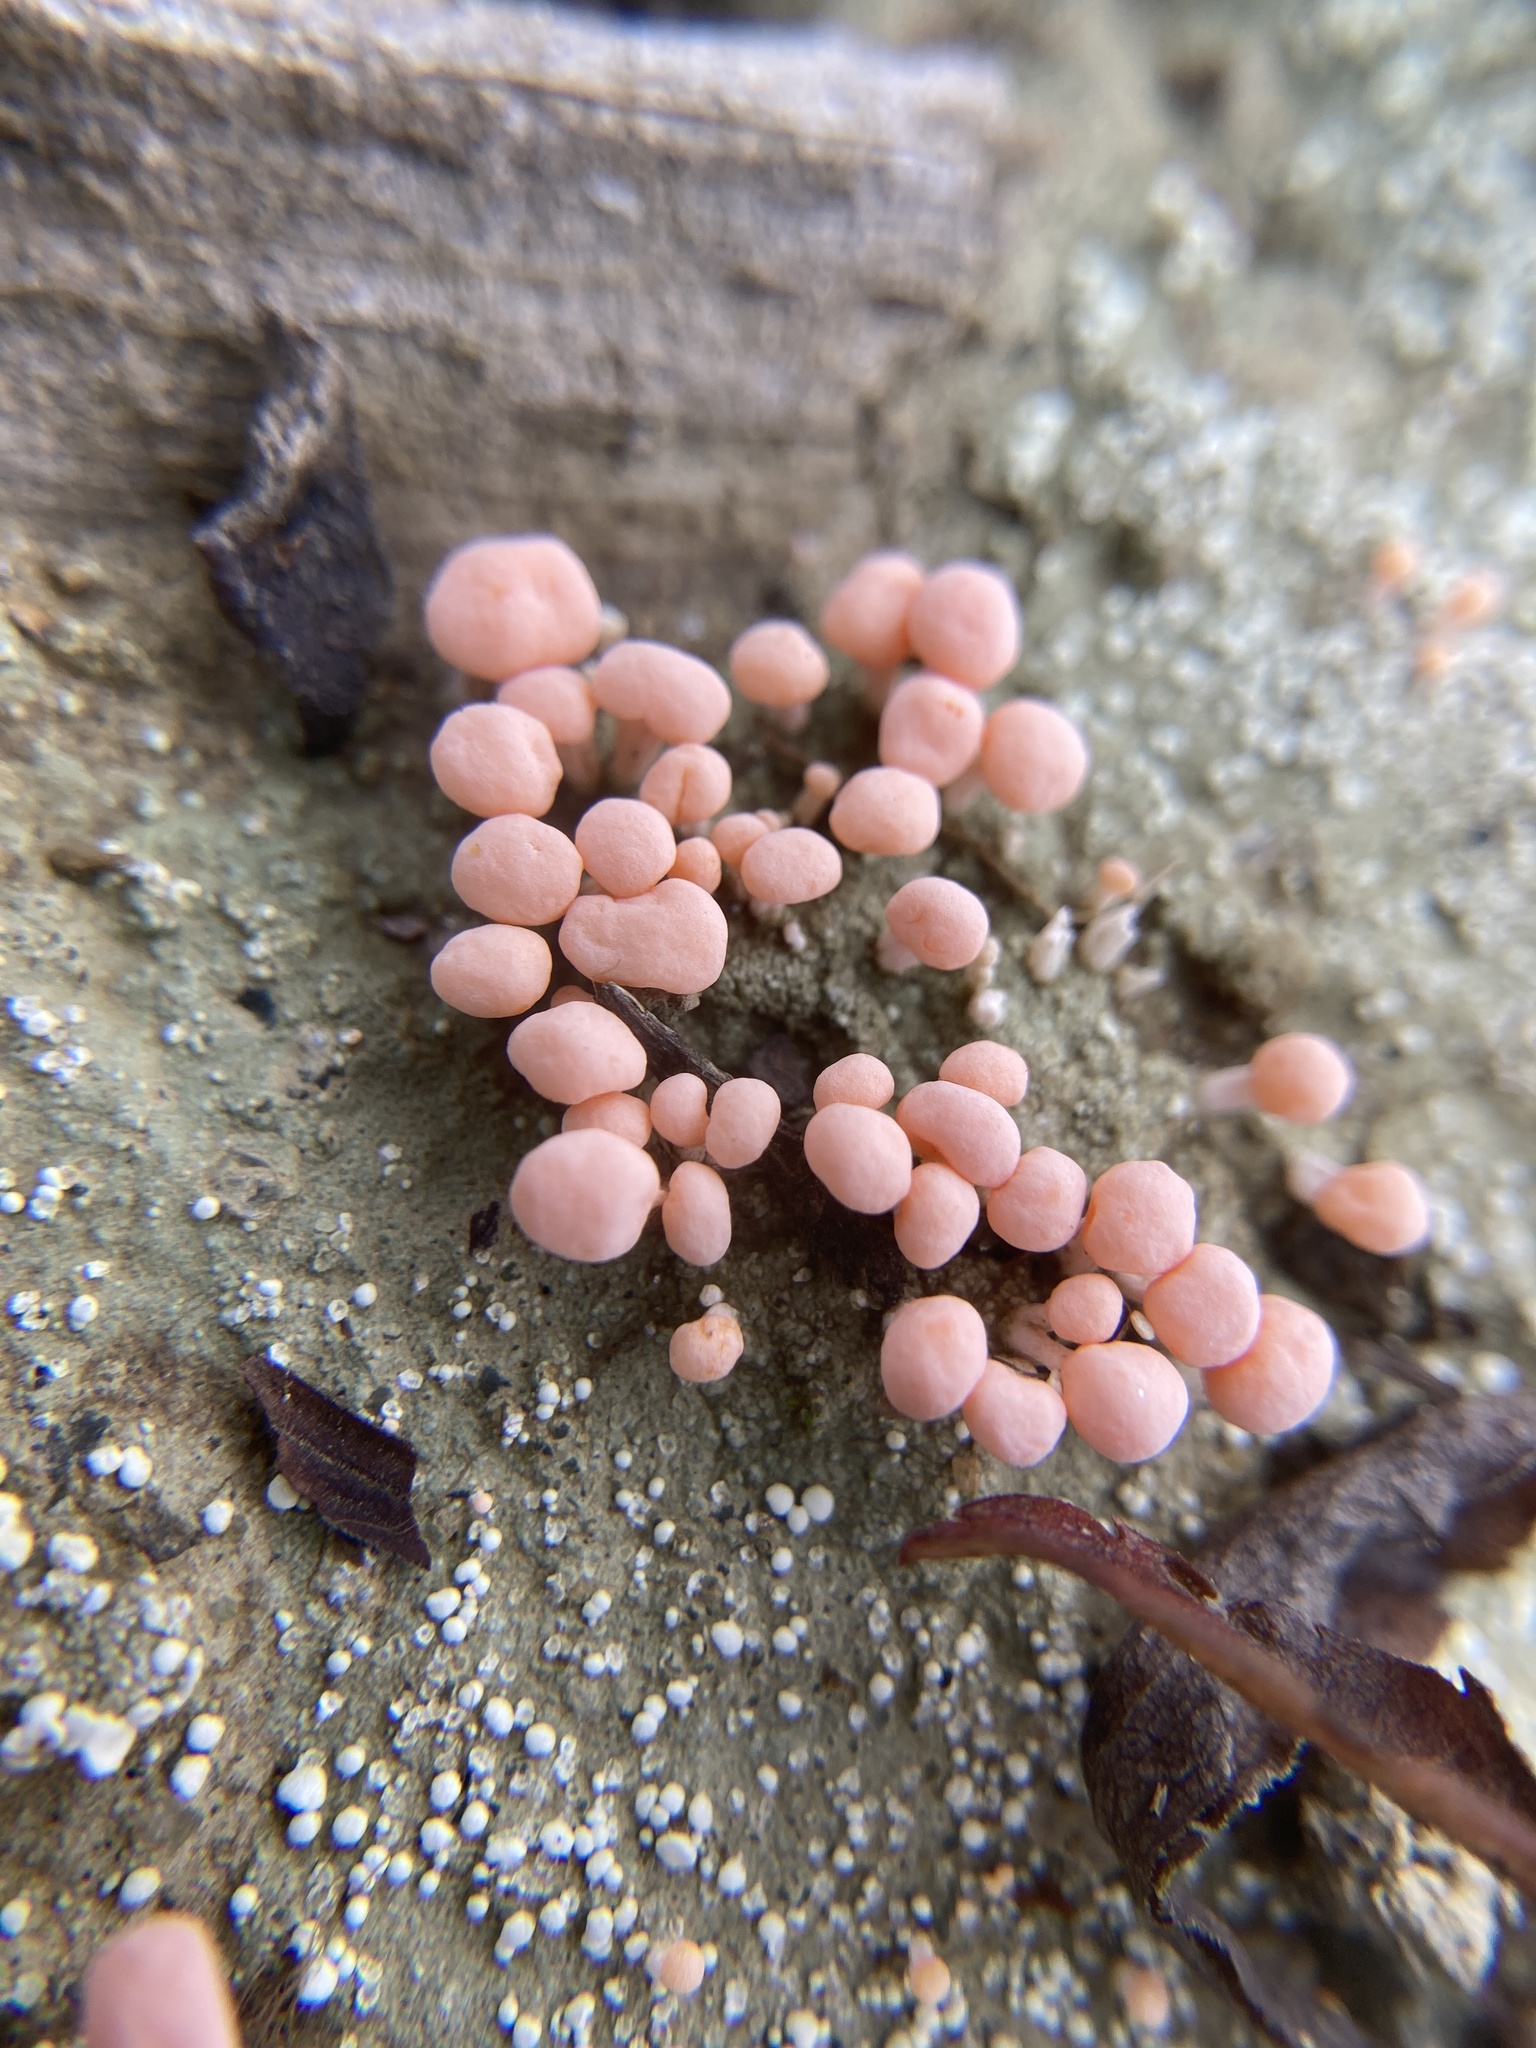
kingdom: Fungi
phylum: Ascomycota
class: Lecanoromycetes
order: Pertusariales
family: Icmadophilaceae
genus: Dibaeis
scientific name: Dibaeis baeomyces
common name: Pink earth lichen
